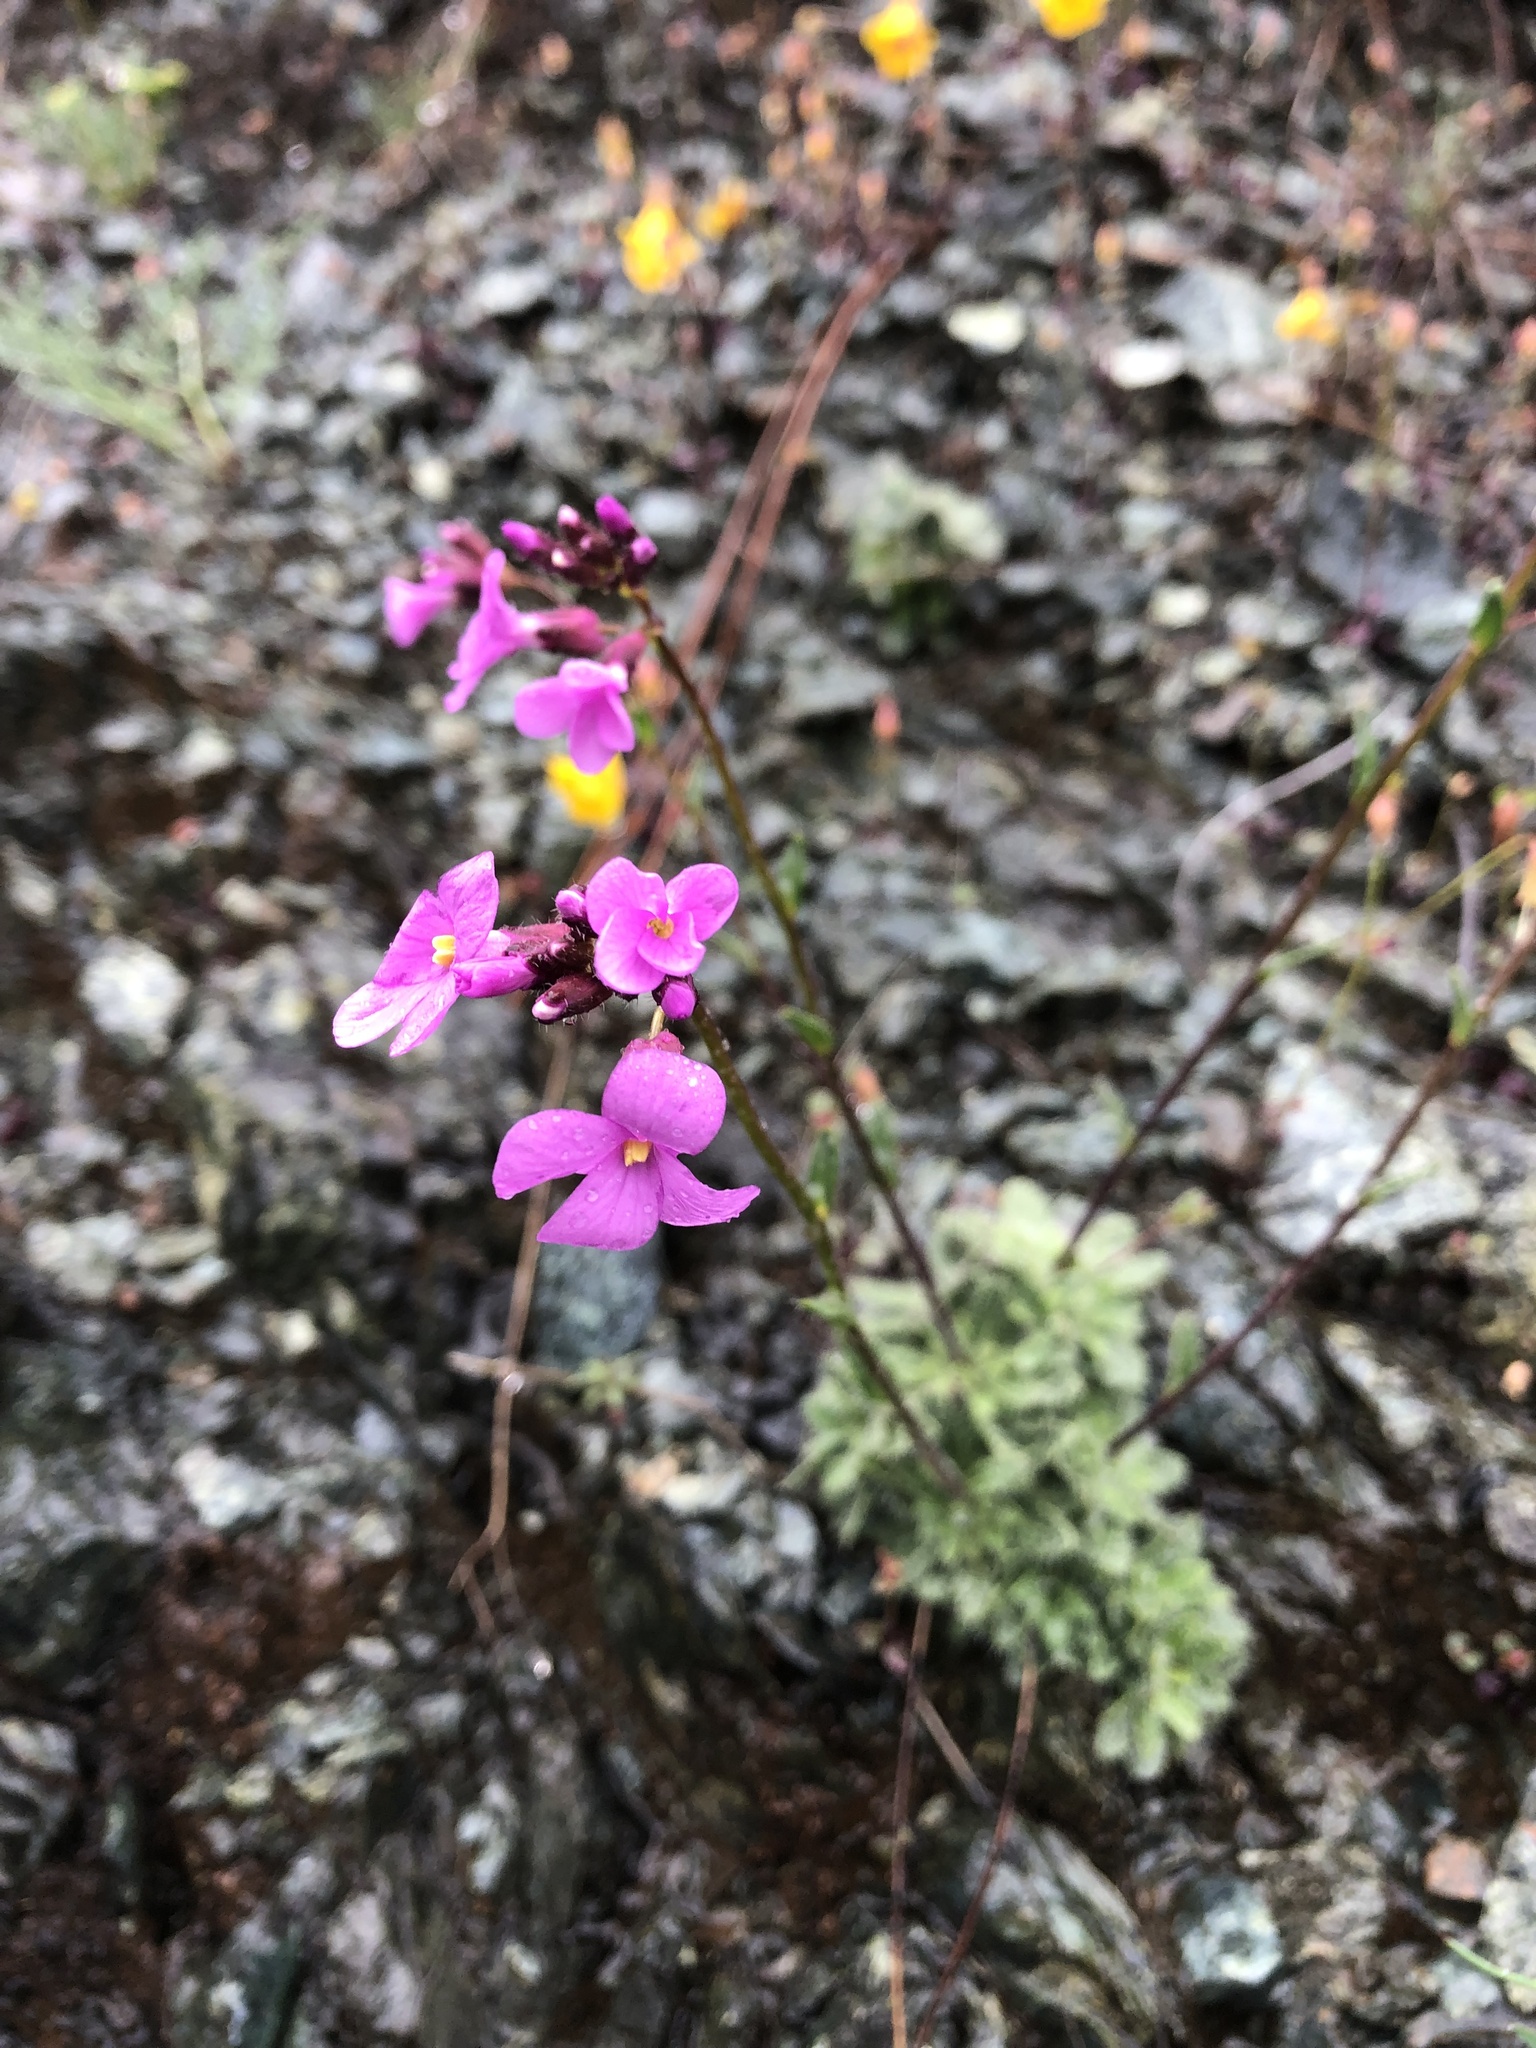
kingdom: Plantae
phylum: Tracheophyta
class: Magnoliopsida
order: Brassicales
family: Brassicaceae
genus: Arabis
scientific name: Arabis aculeolata
